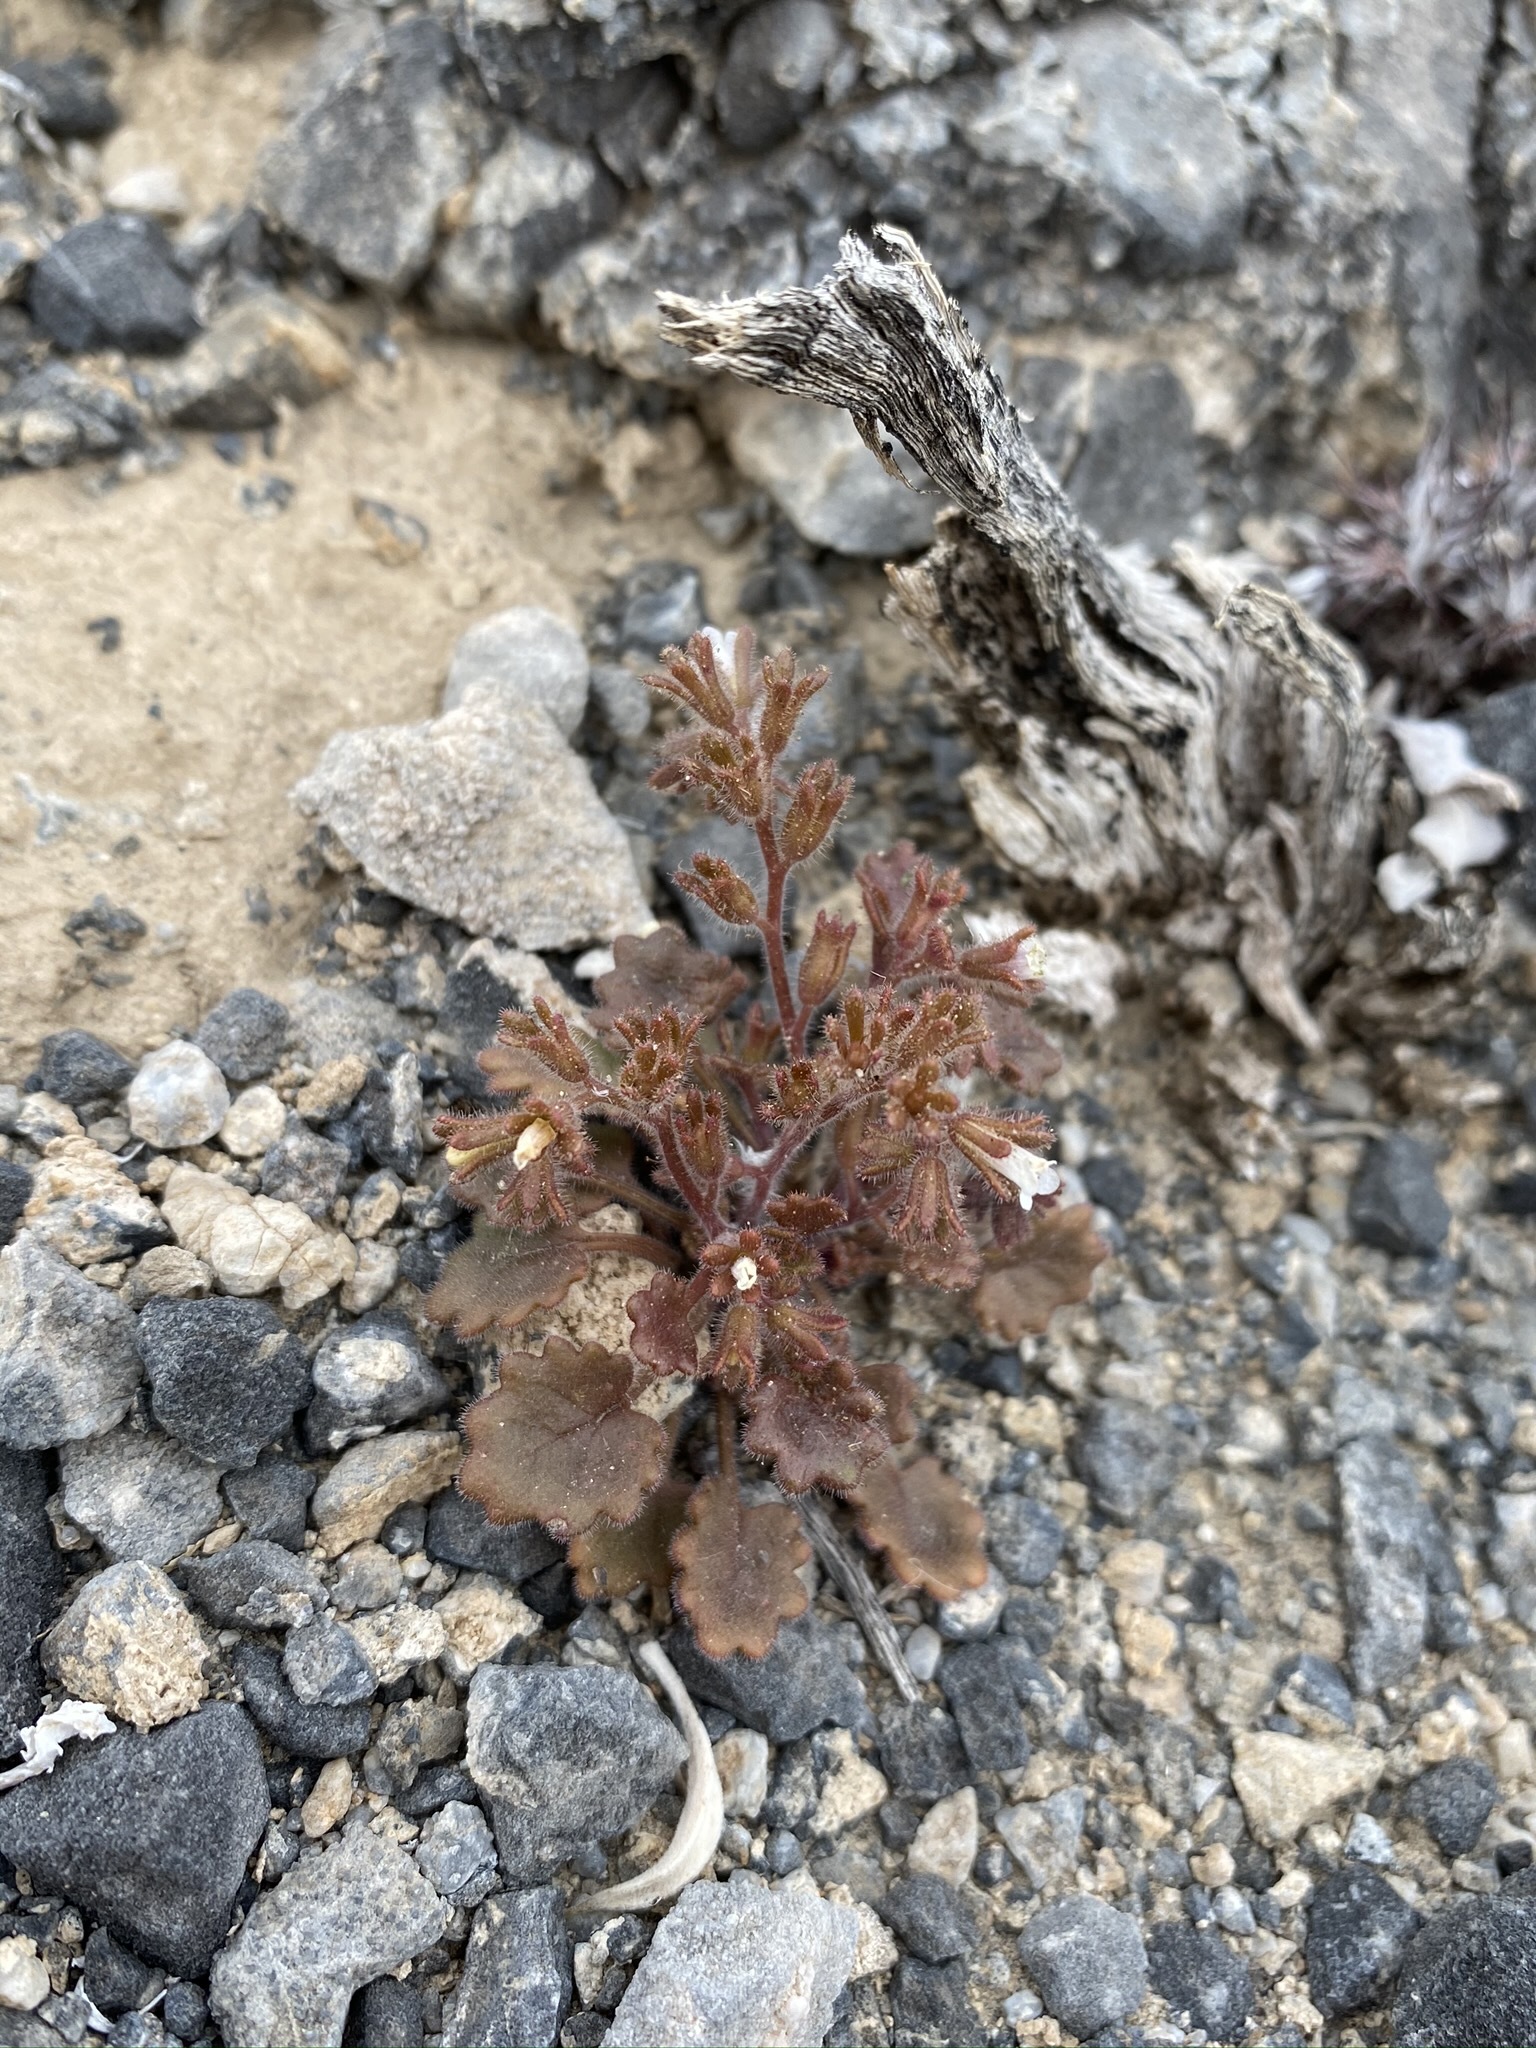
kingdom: Plantae
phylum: Tracheophyta
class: Magnoliopsida
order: Boraginales
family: Hydrophyllaceae
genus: Phacelia
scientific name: Phacelia rotundifolia
